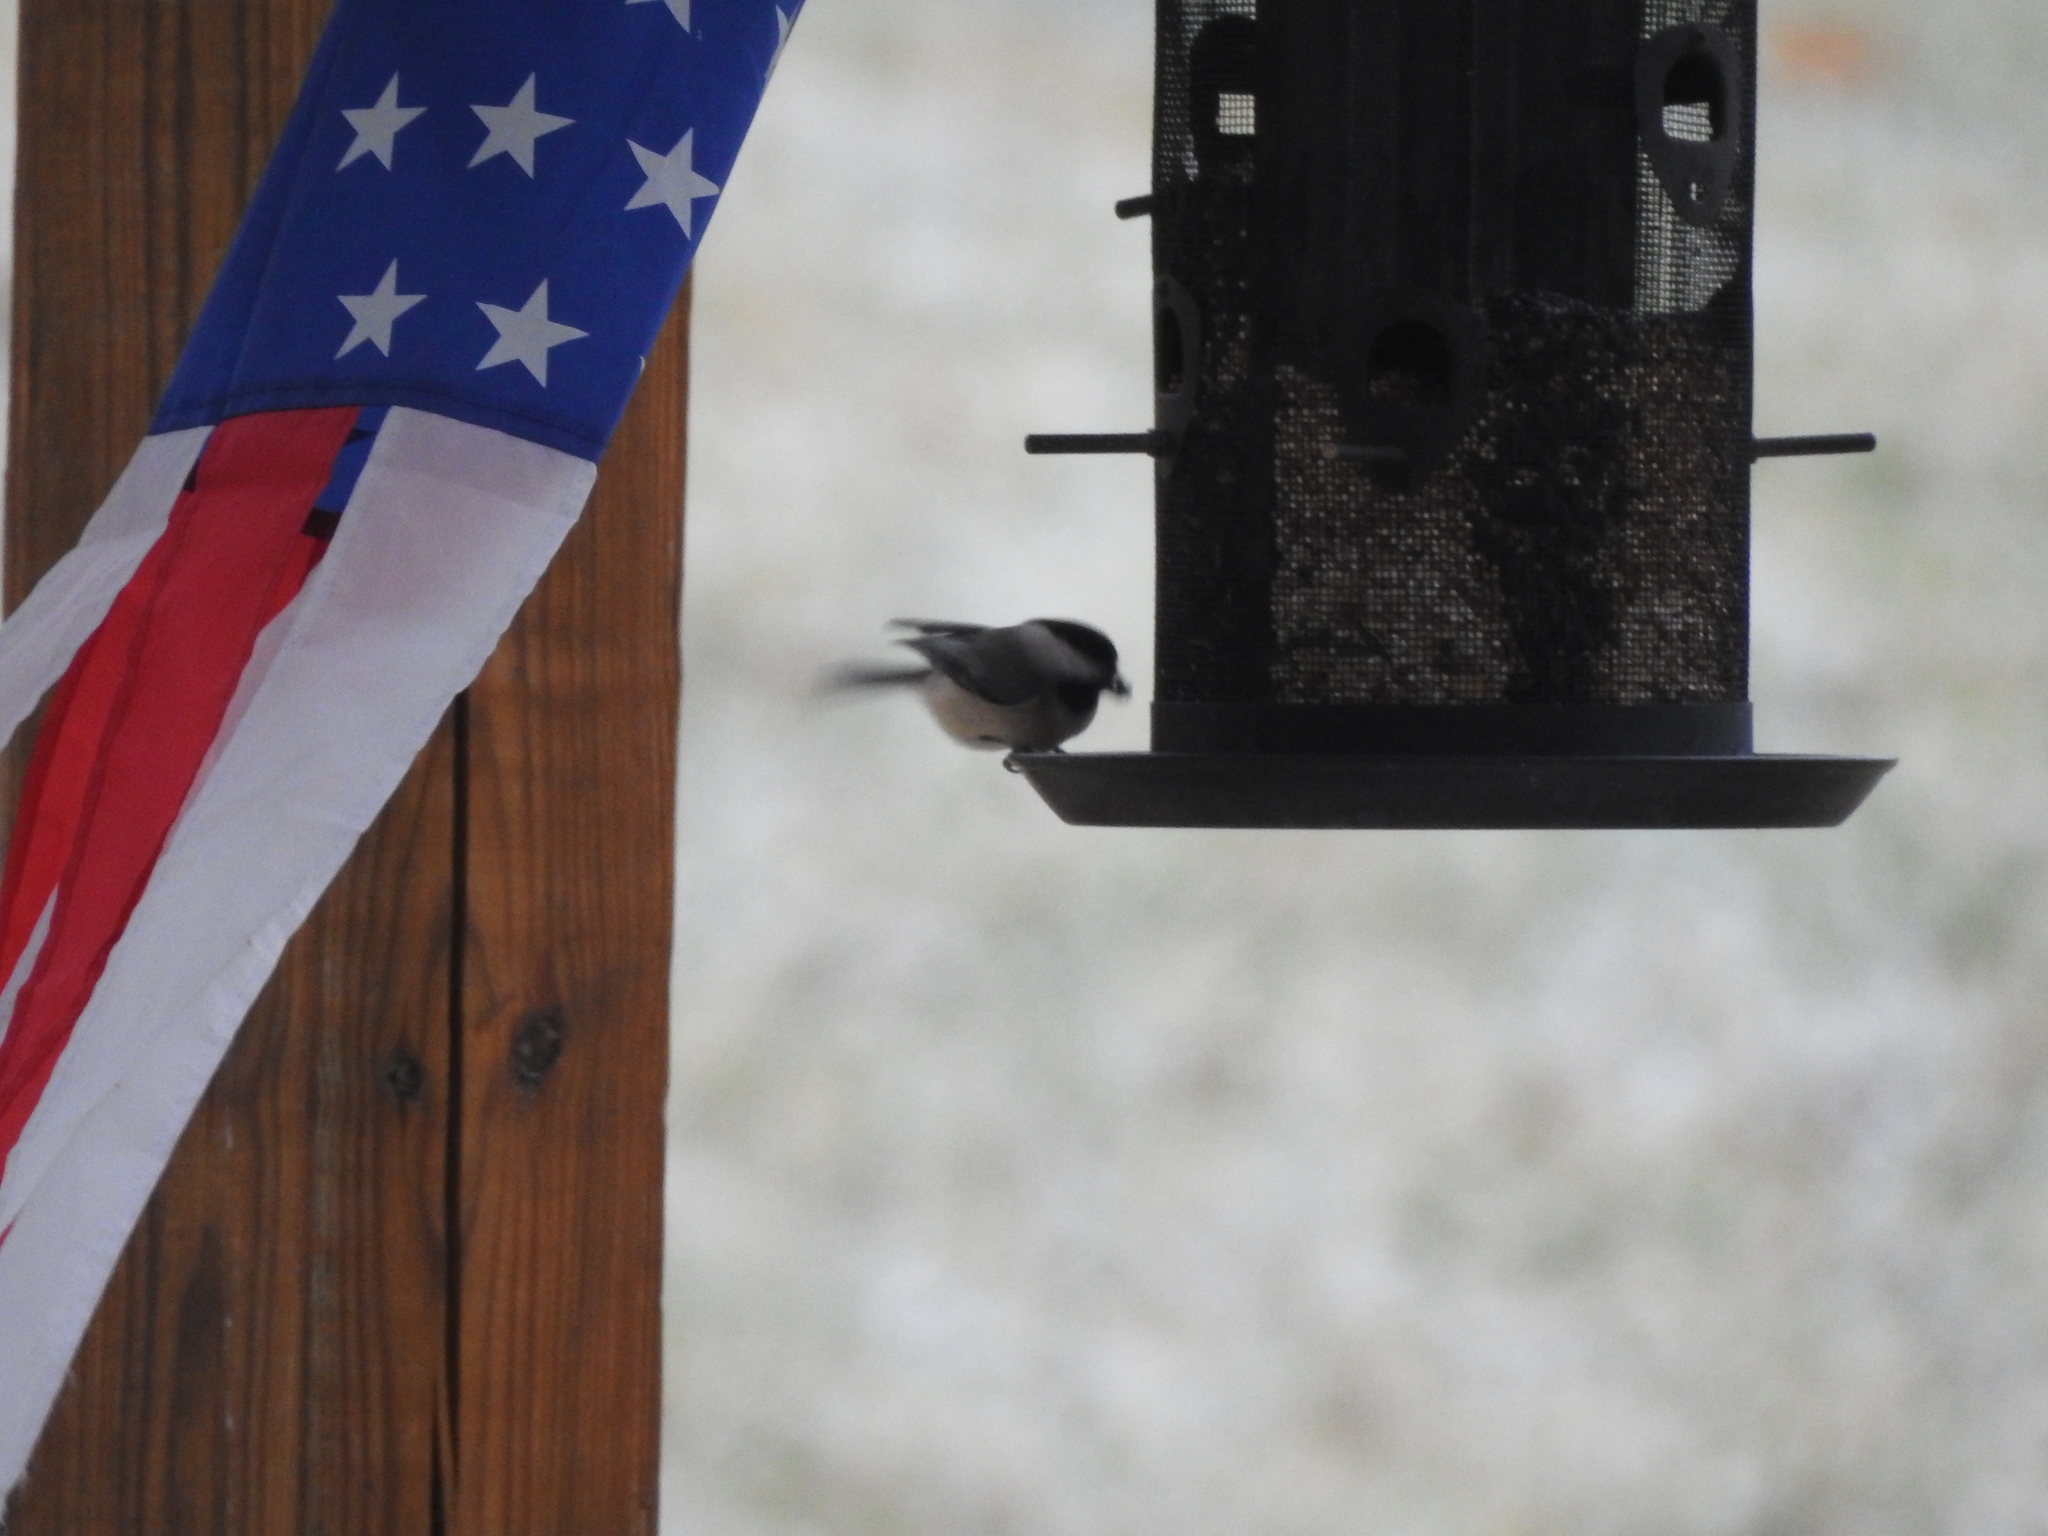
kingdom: Animalia
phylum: Chordata
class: Aves
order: Passeriformes
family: Paridae
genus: Poecile
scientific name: Poecile carolinensis
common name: Carolina chickadee
